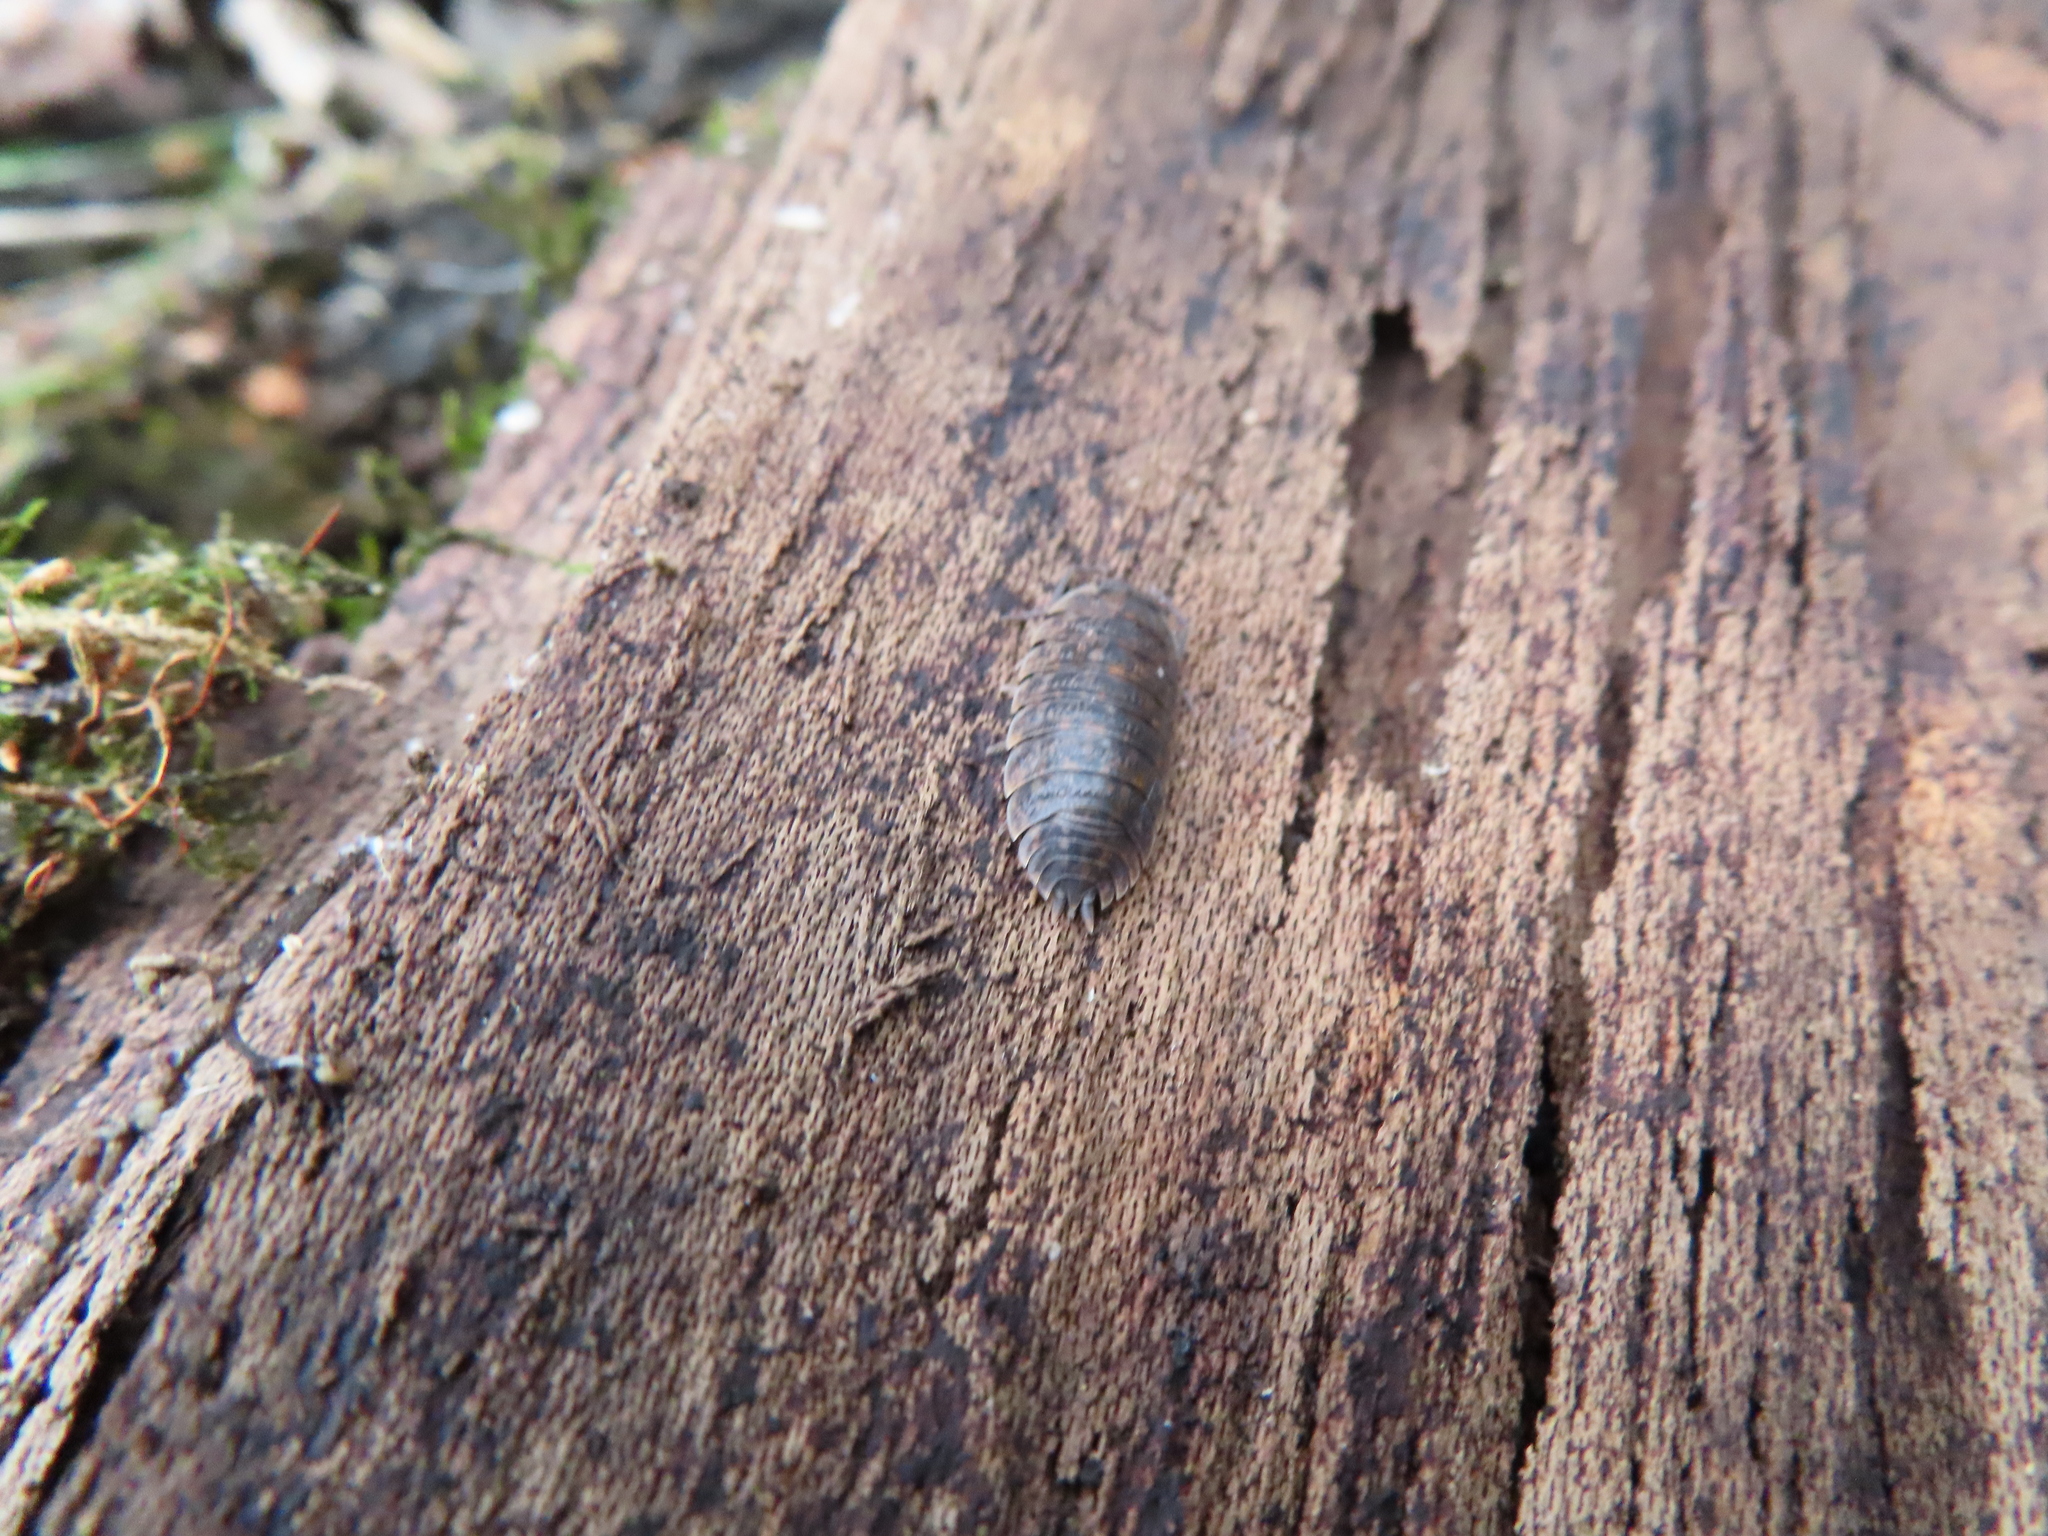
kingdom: Animalia
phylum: Arthropoda
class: Malacostraca
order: Isopoda
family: Trachelipodidae
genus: Trachelipus
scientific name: Trachelipus rathkii
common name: Isopod
